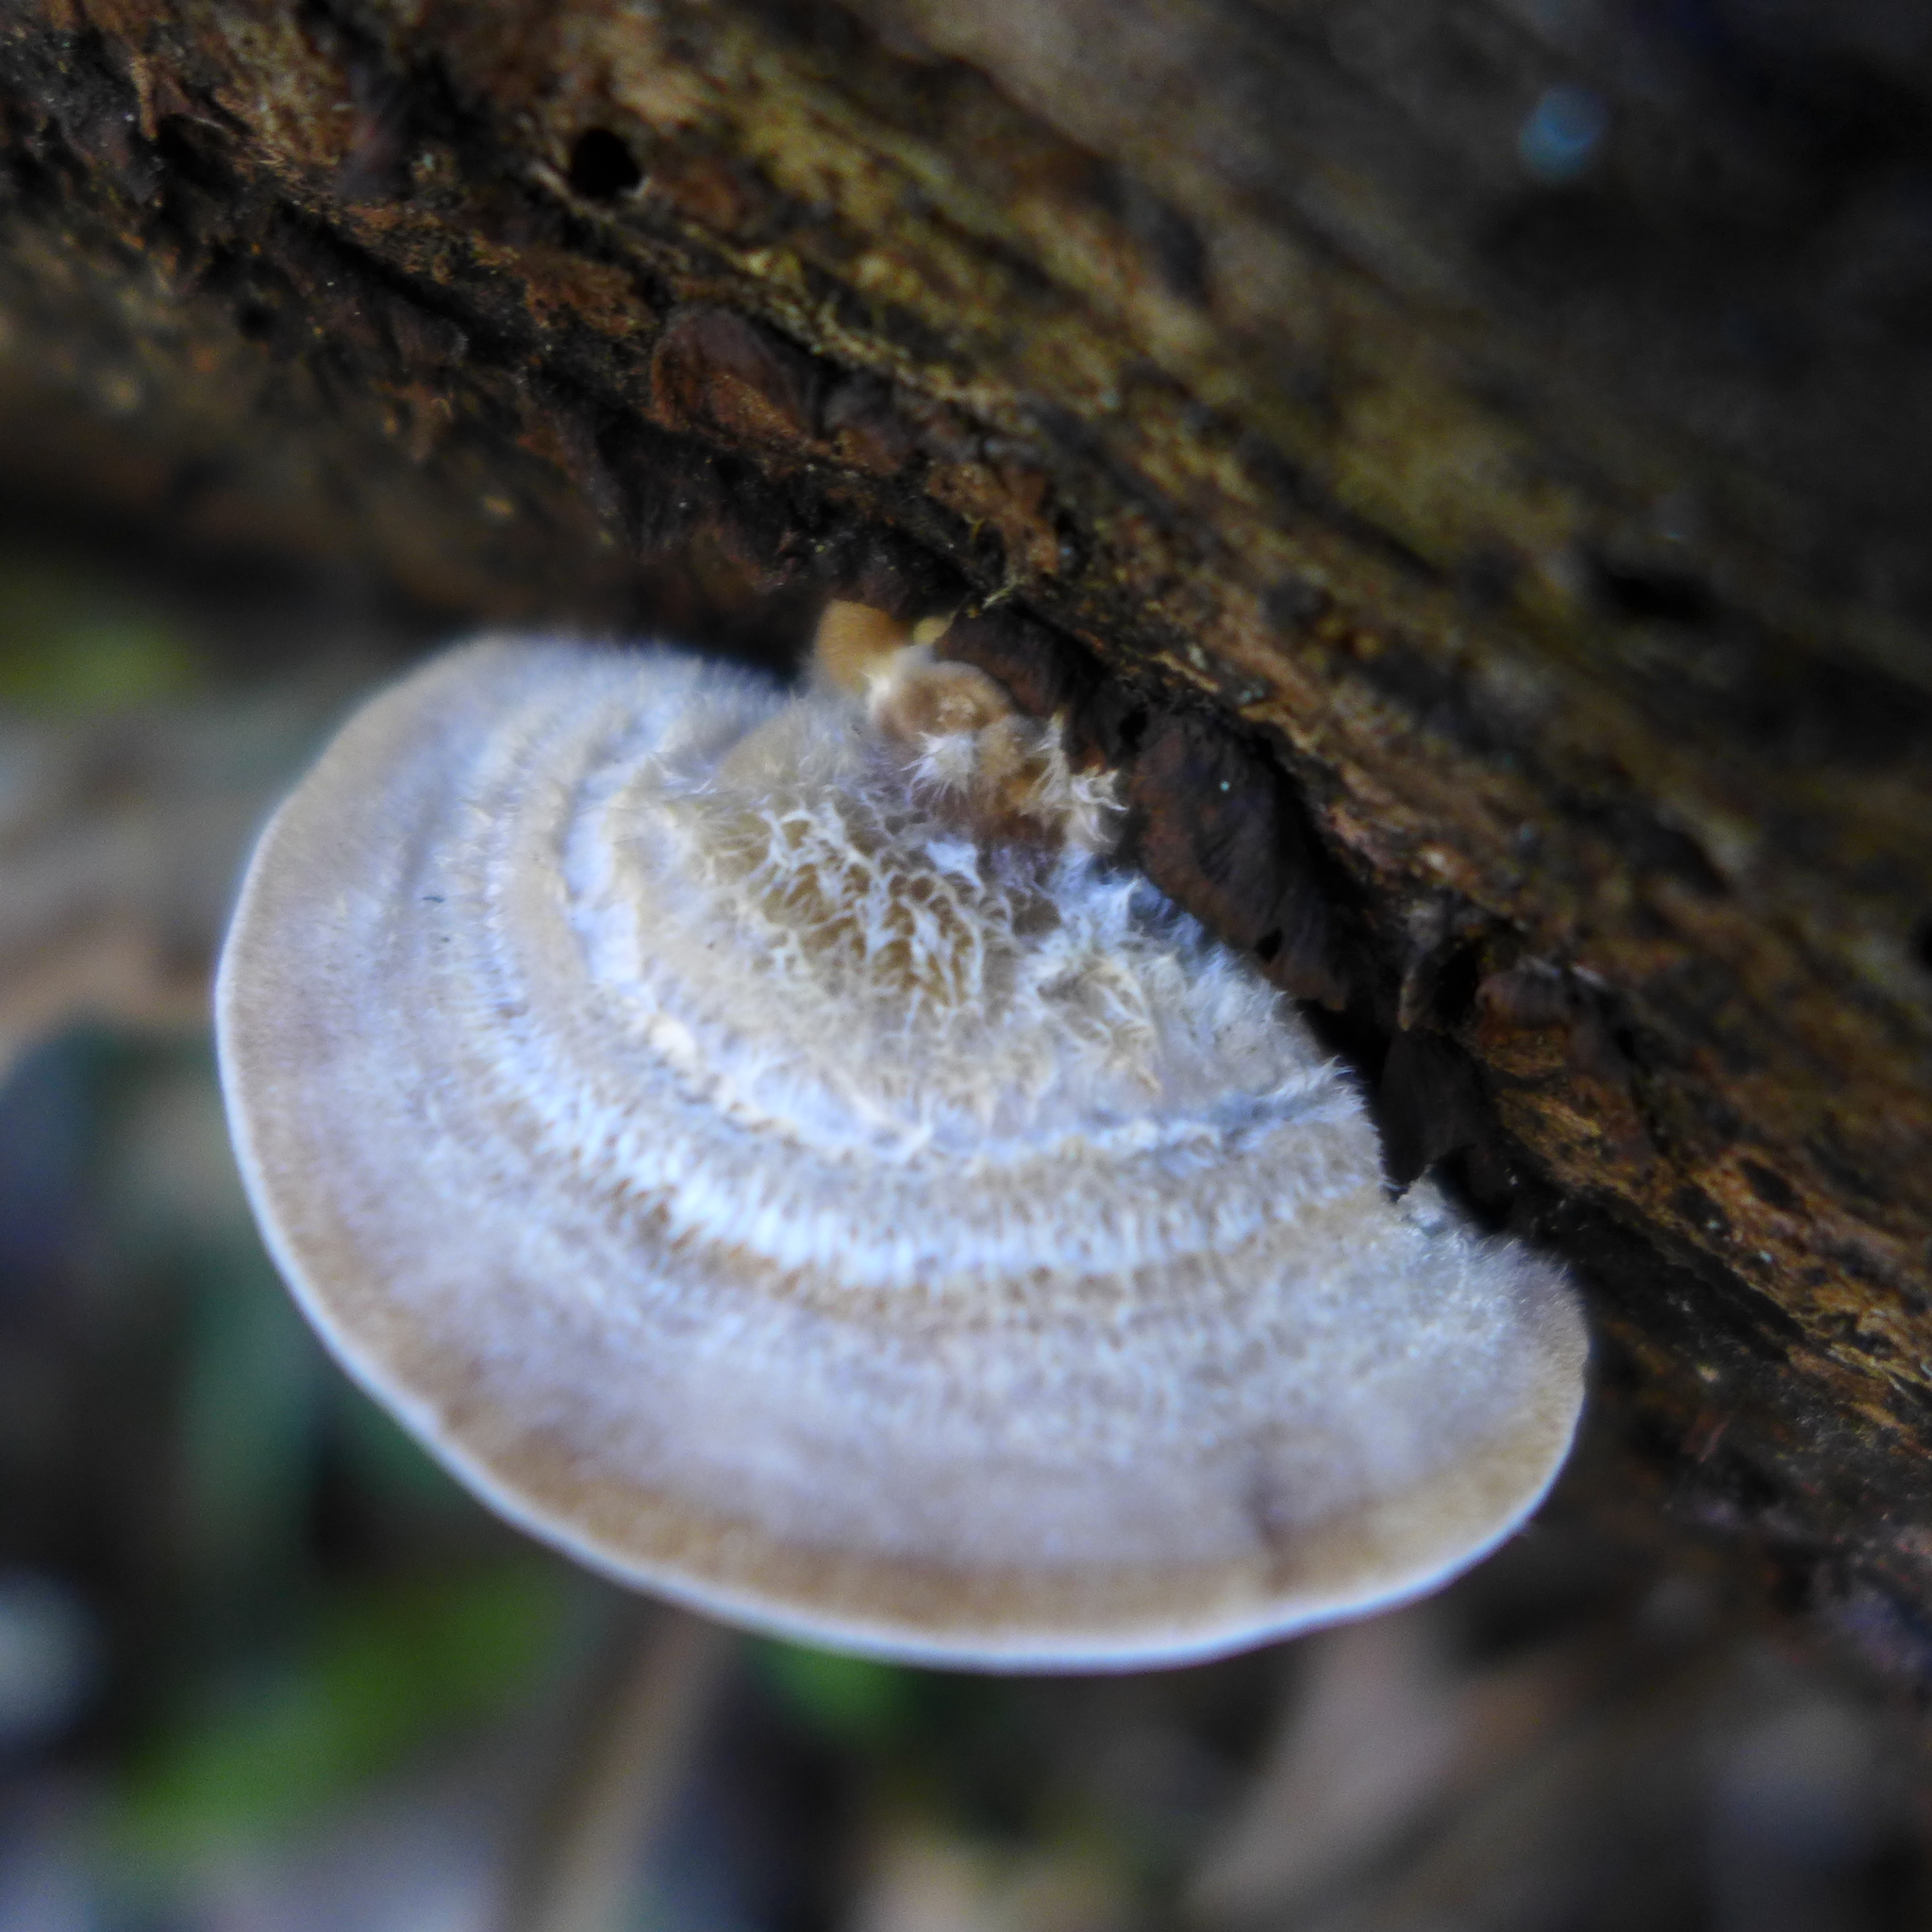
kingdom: Fungi
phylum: Basidiomycota
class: Agaricomycetes
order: Polyporales
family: Polyporaceae
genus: Lenzites
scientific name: Lenzites betulinus
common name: Birch mazegill
